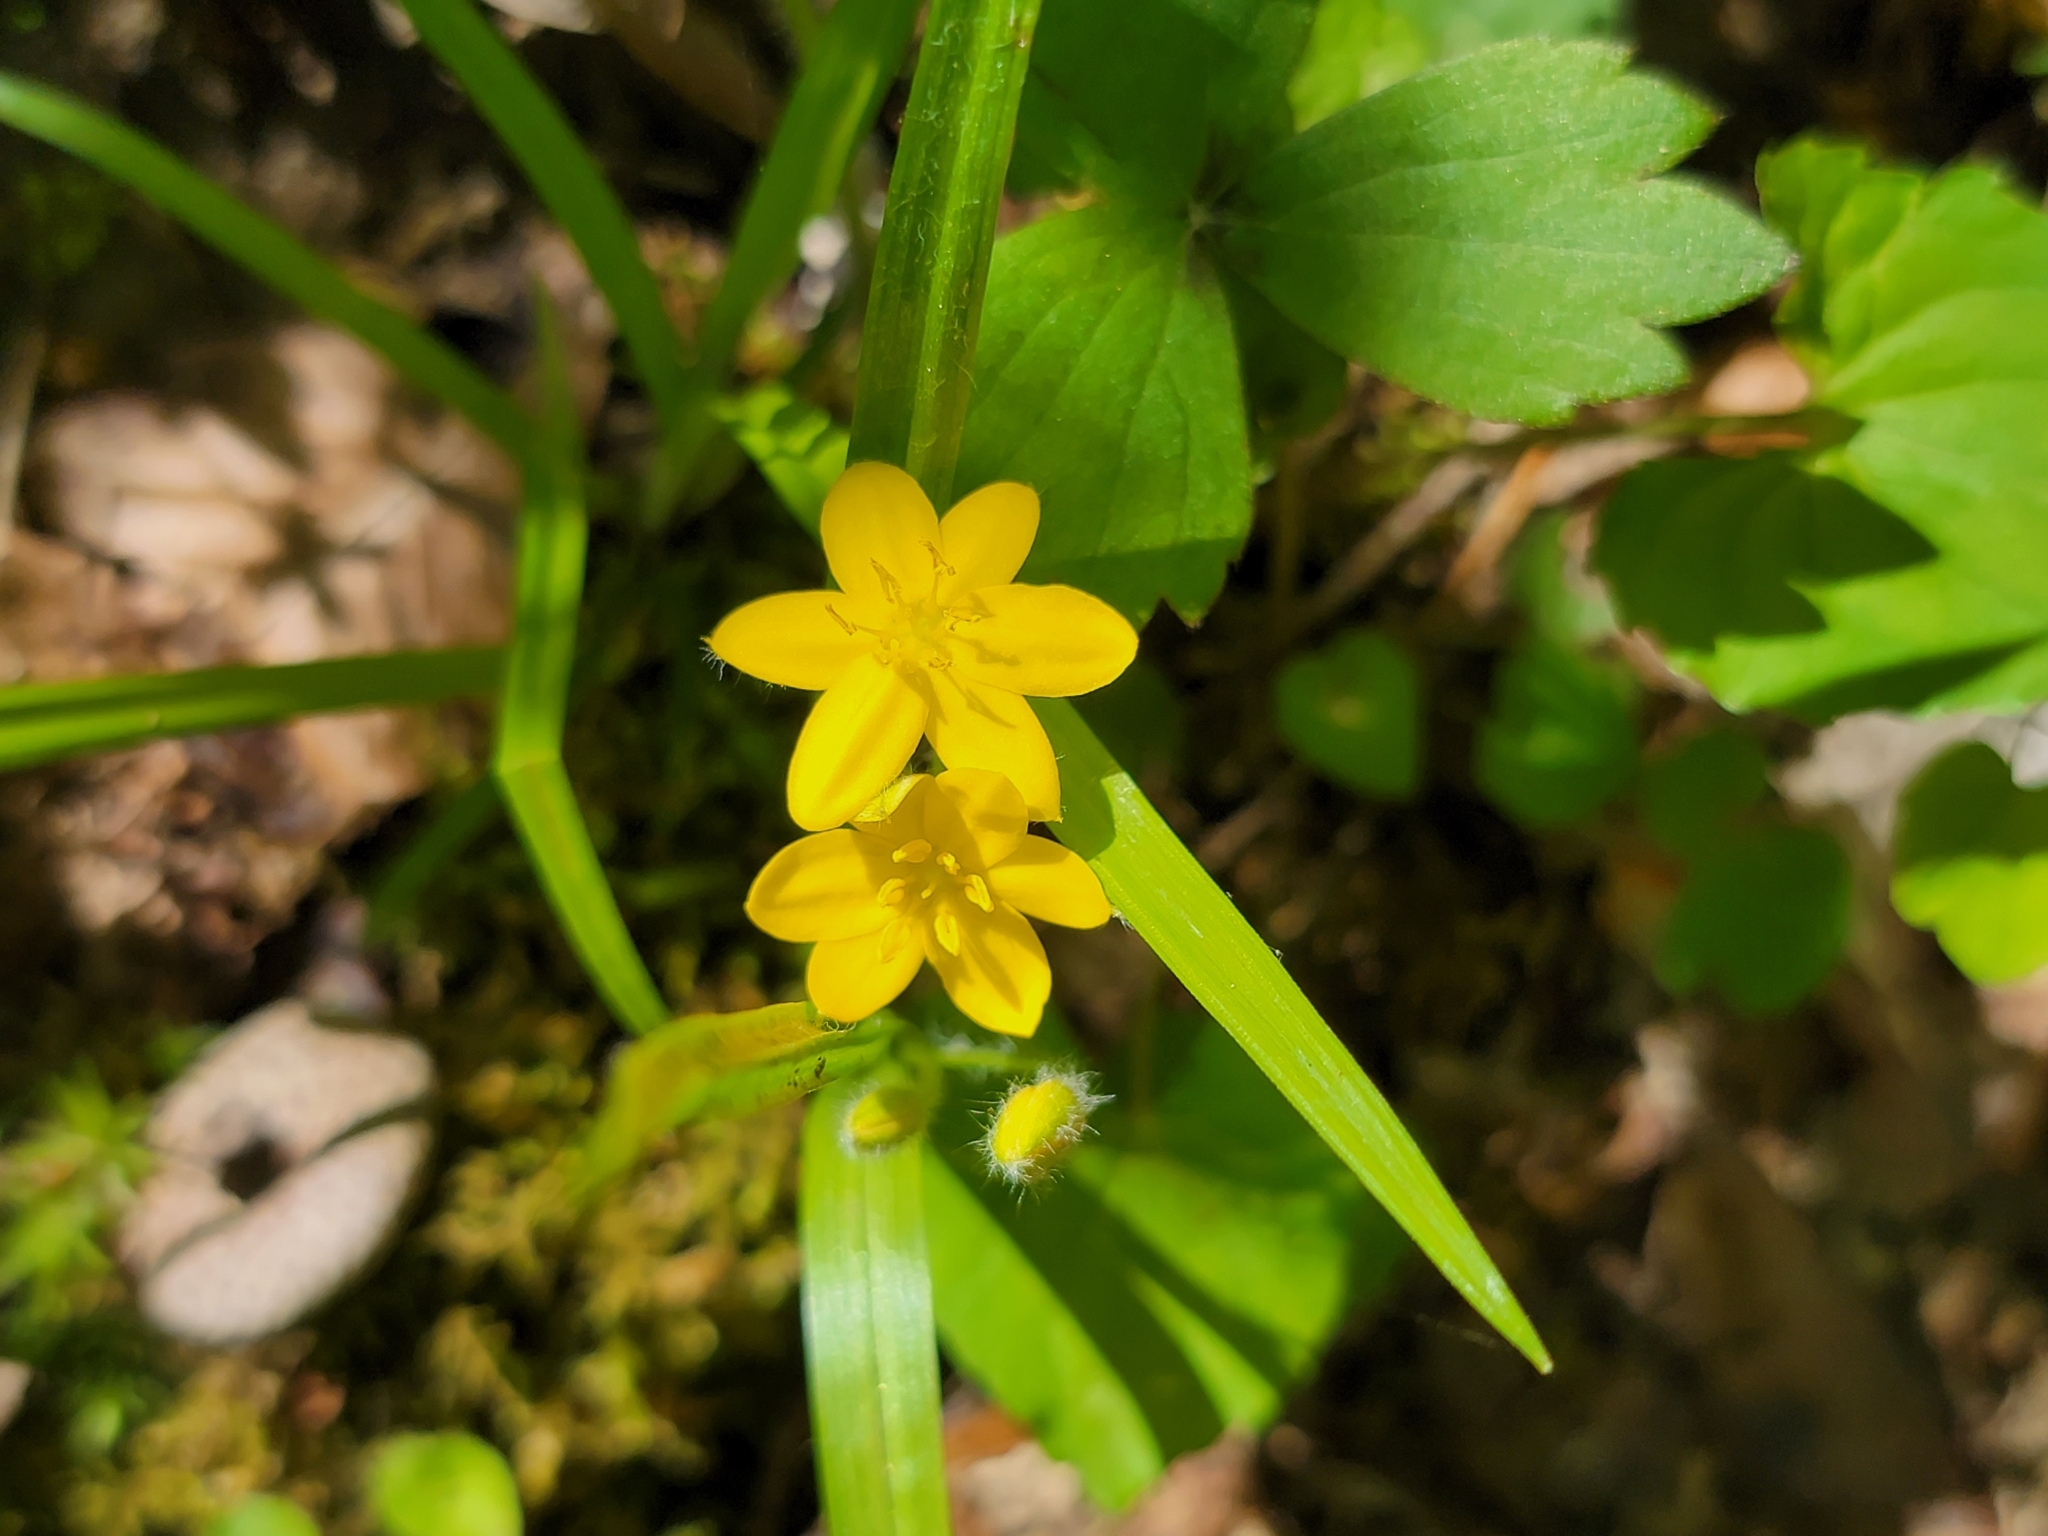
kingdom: Plantae
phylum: Tracheophyta
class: Liliopsida
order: Asparagales
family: Hypoxidaceae
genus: Hypoxis
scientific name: Hypoxis hirsuta
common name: Common goldstar
